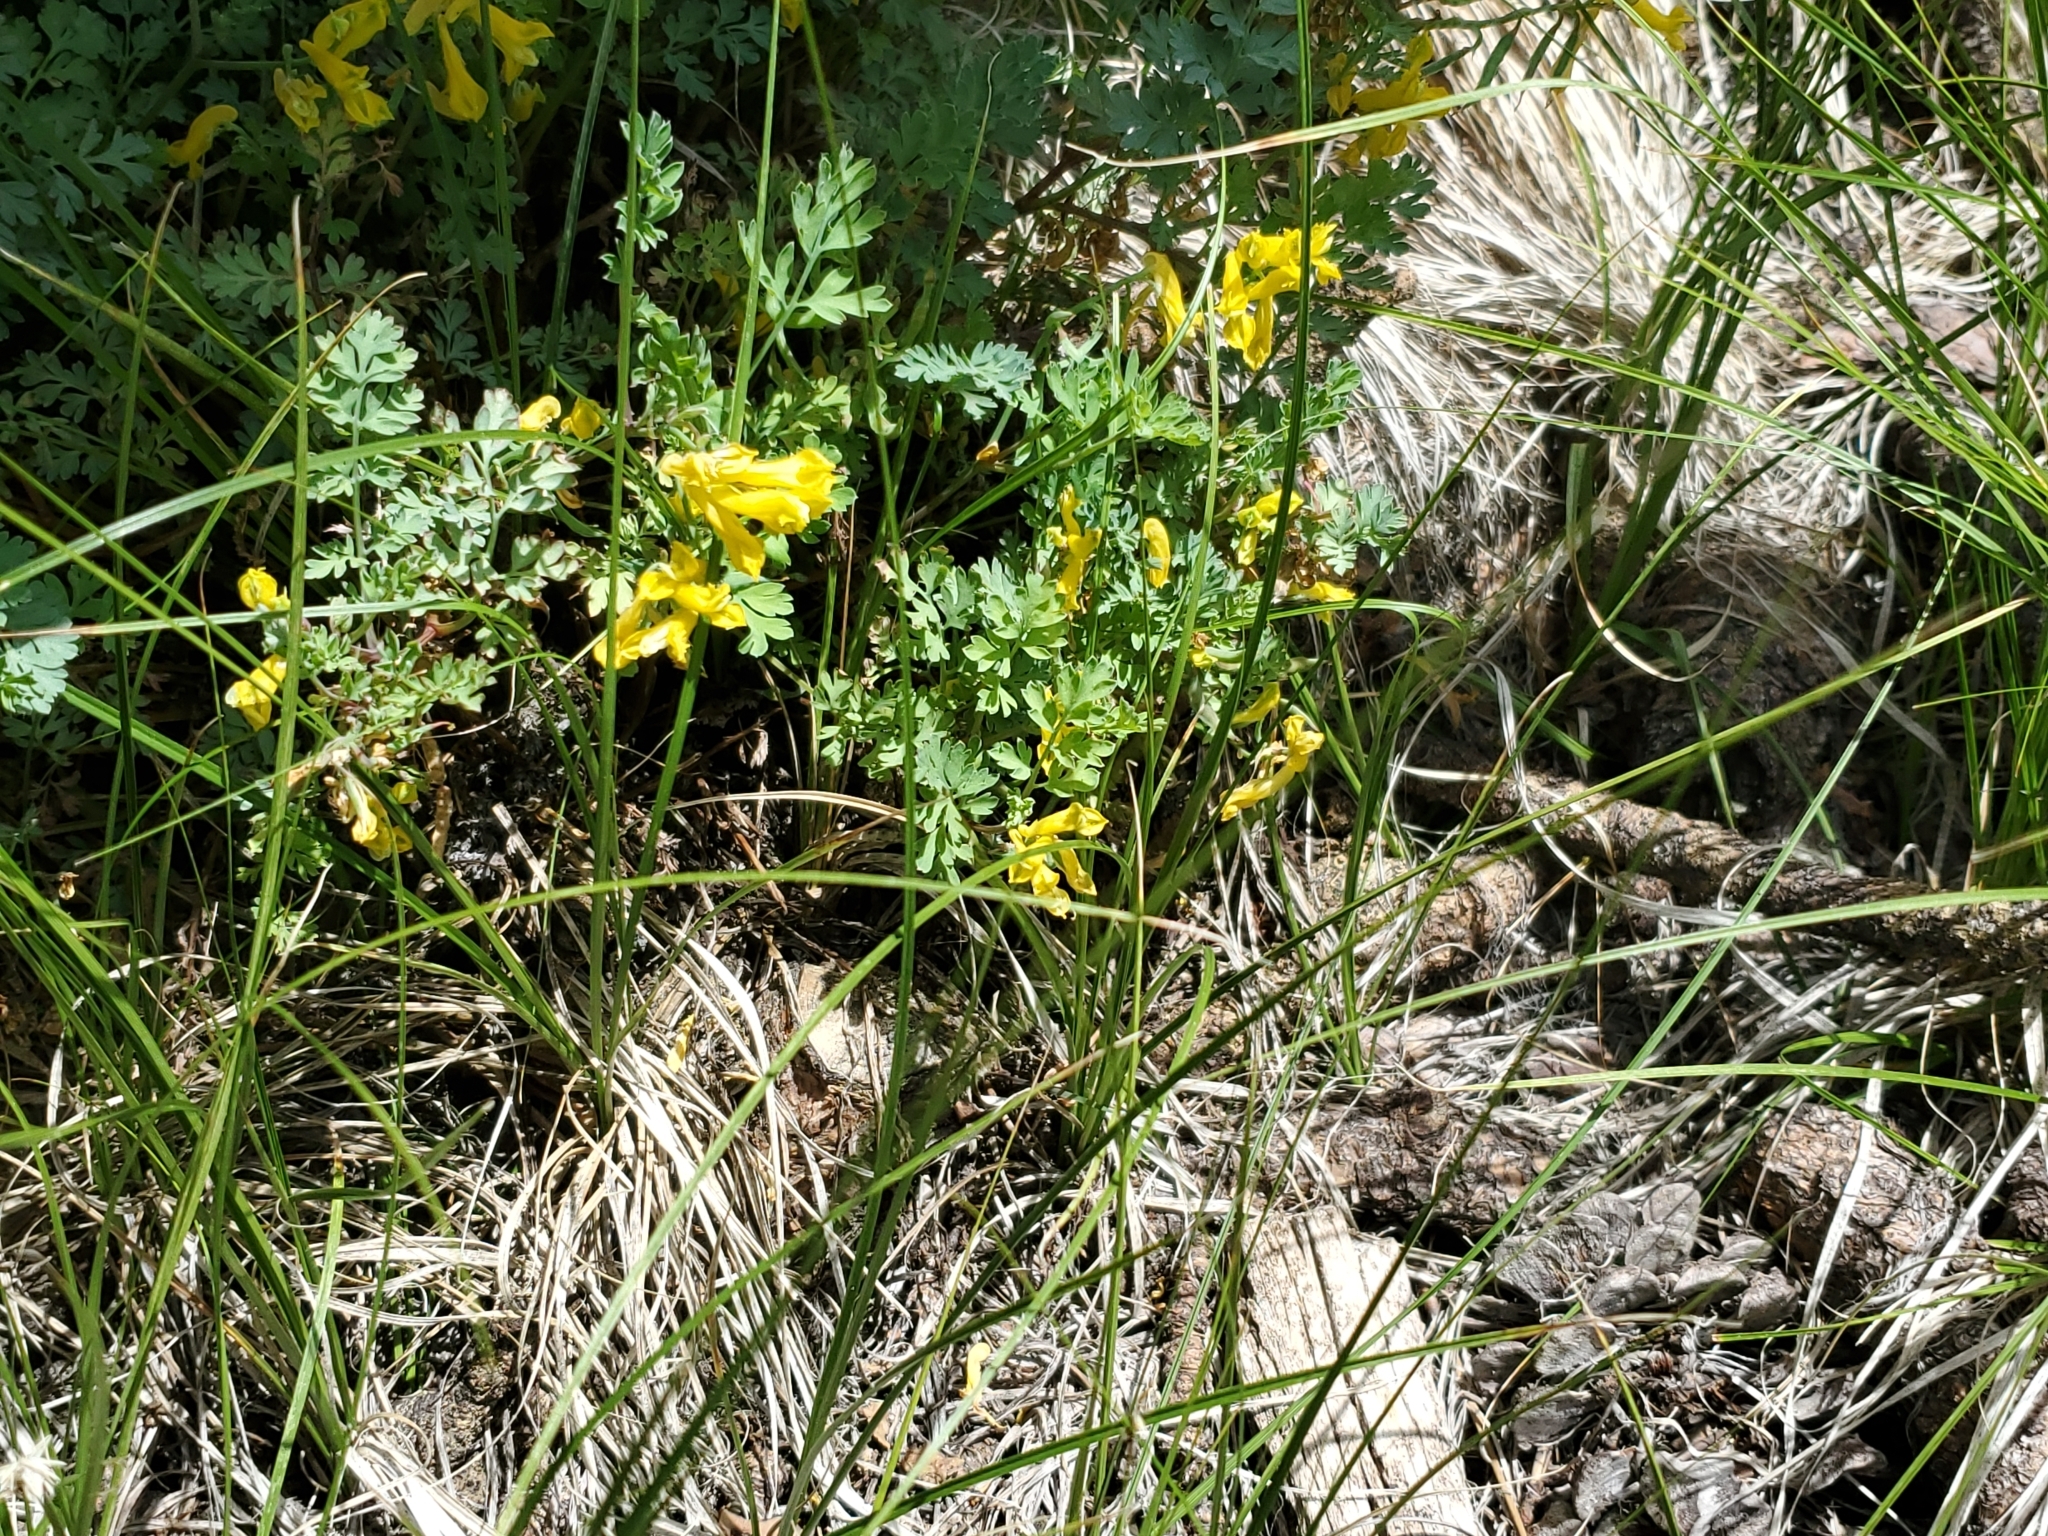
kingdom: Plantae
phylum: Tracheophyta
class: Magnoliopsida
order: Ranunculales
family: Papaveraceae
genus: Corydalis
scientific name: Corydalis aurea
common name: Golden corydalis
